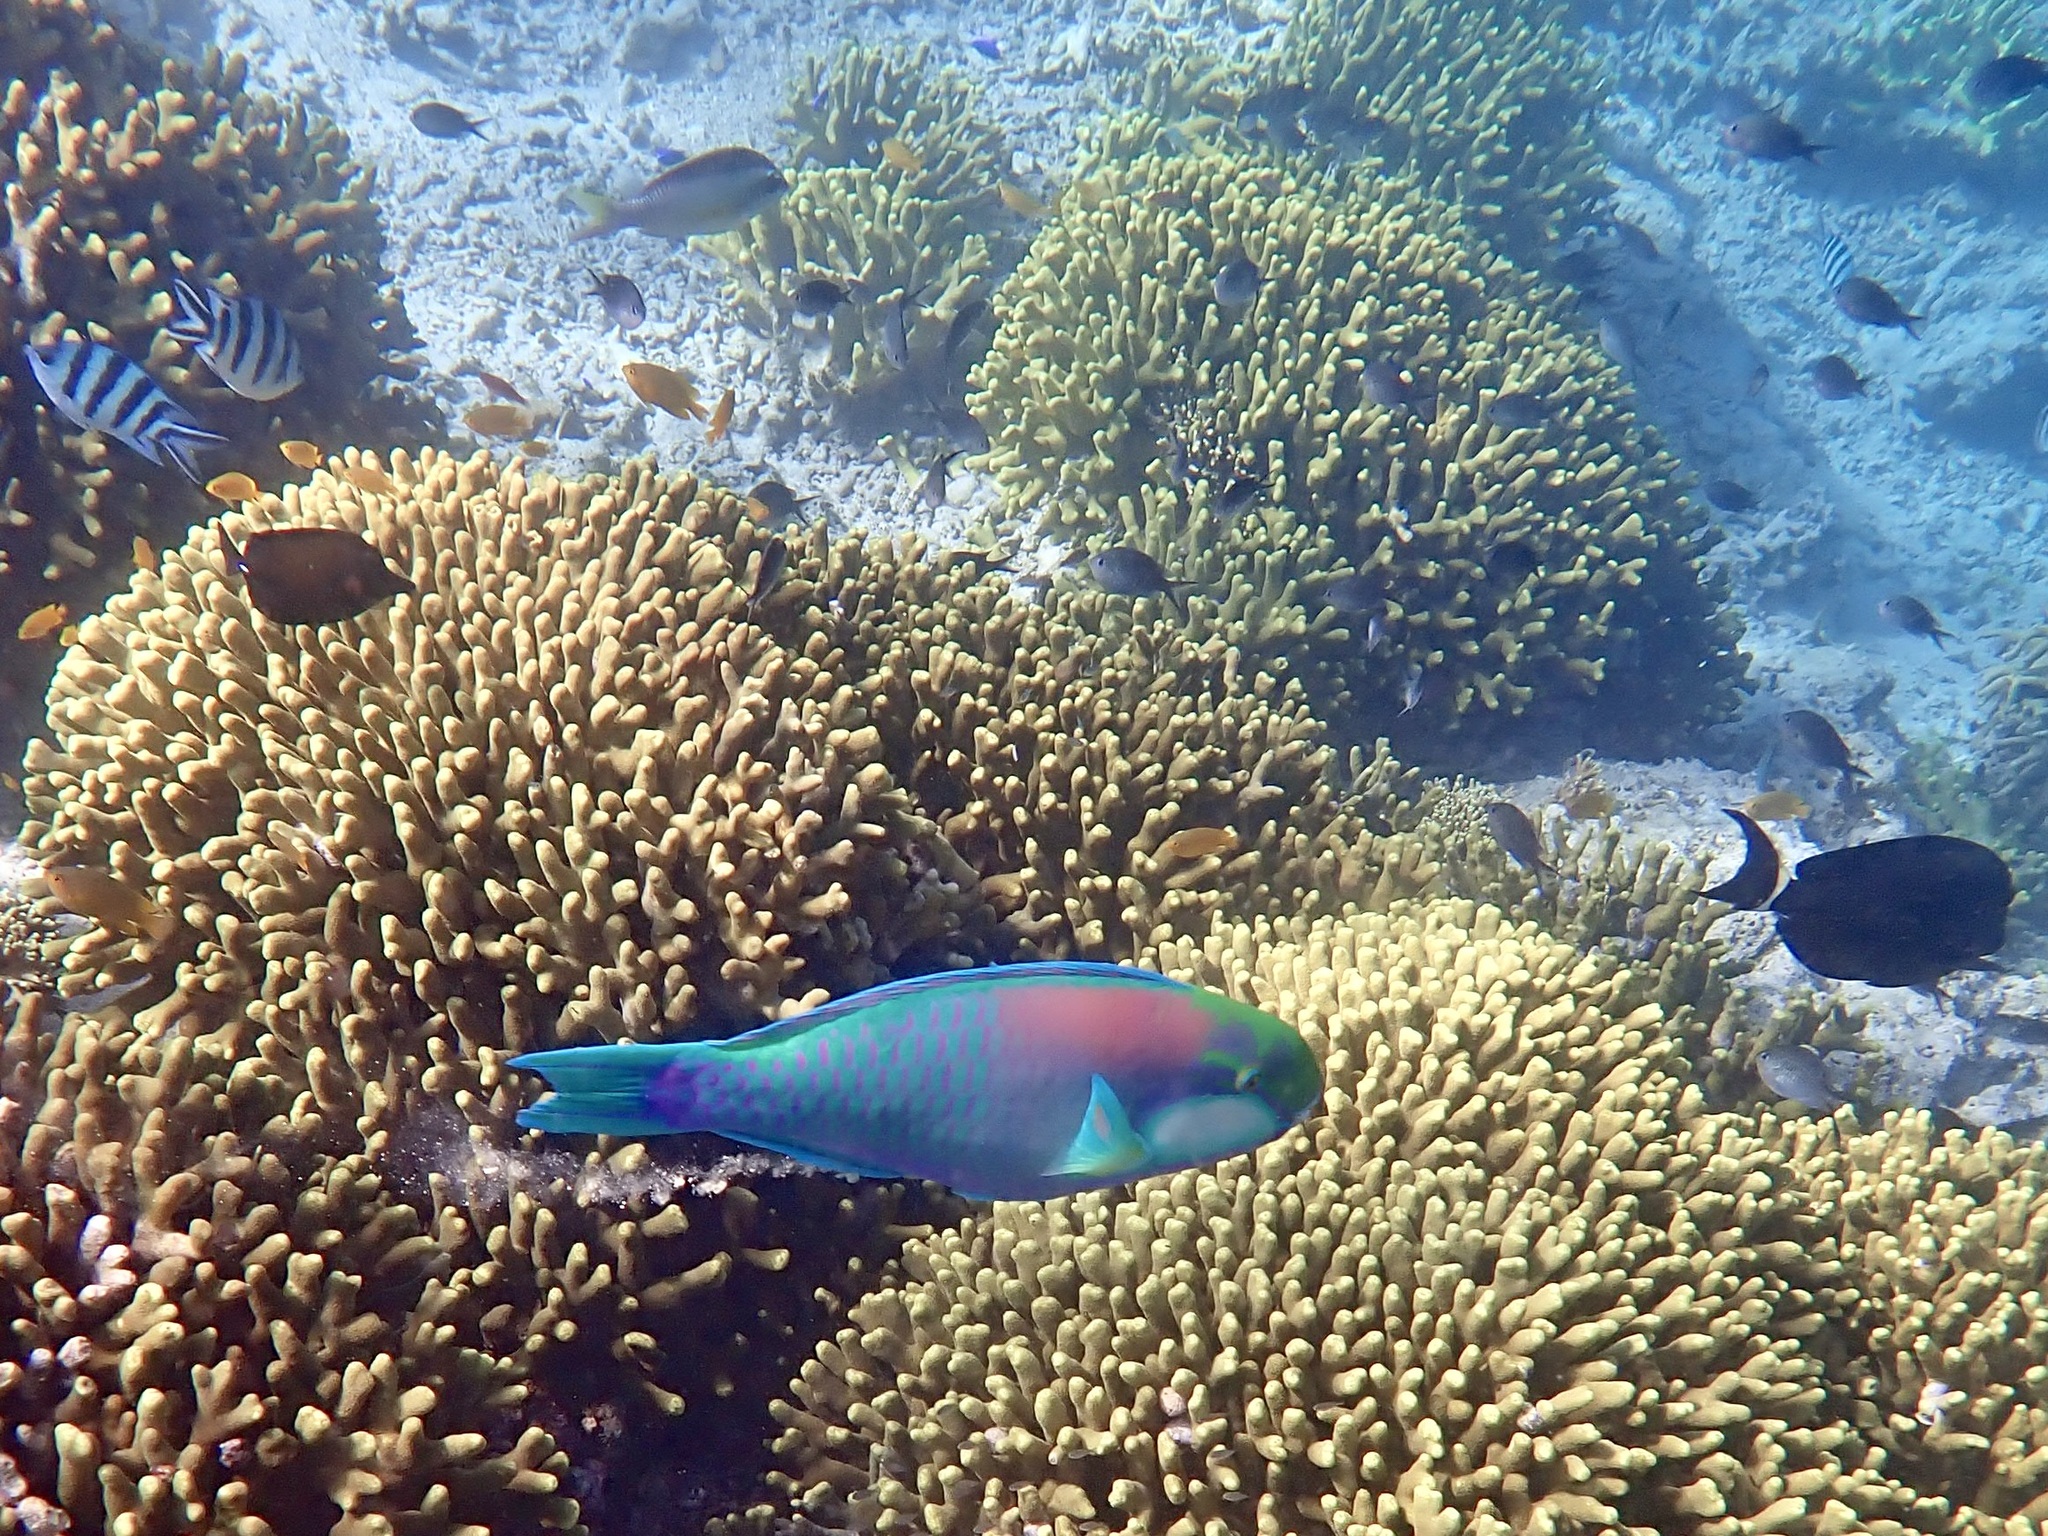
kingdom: Animalia
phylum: Chordata
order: Perciformes
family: Scaridae
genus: Chlorurus
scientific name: Chlorurus bleekeri
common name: Bleeker's parrotfish
